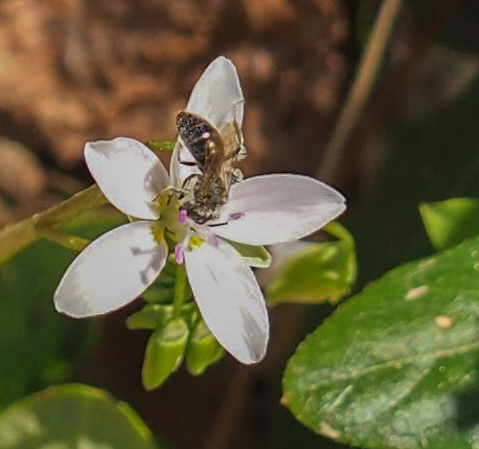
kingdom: Animalia
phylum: Arthropoda
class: Insecta
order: Hymenoptera
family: Andrenidae
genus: Andrena
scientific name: Andrena erigeniae
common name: Spring beauty miner
